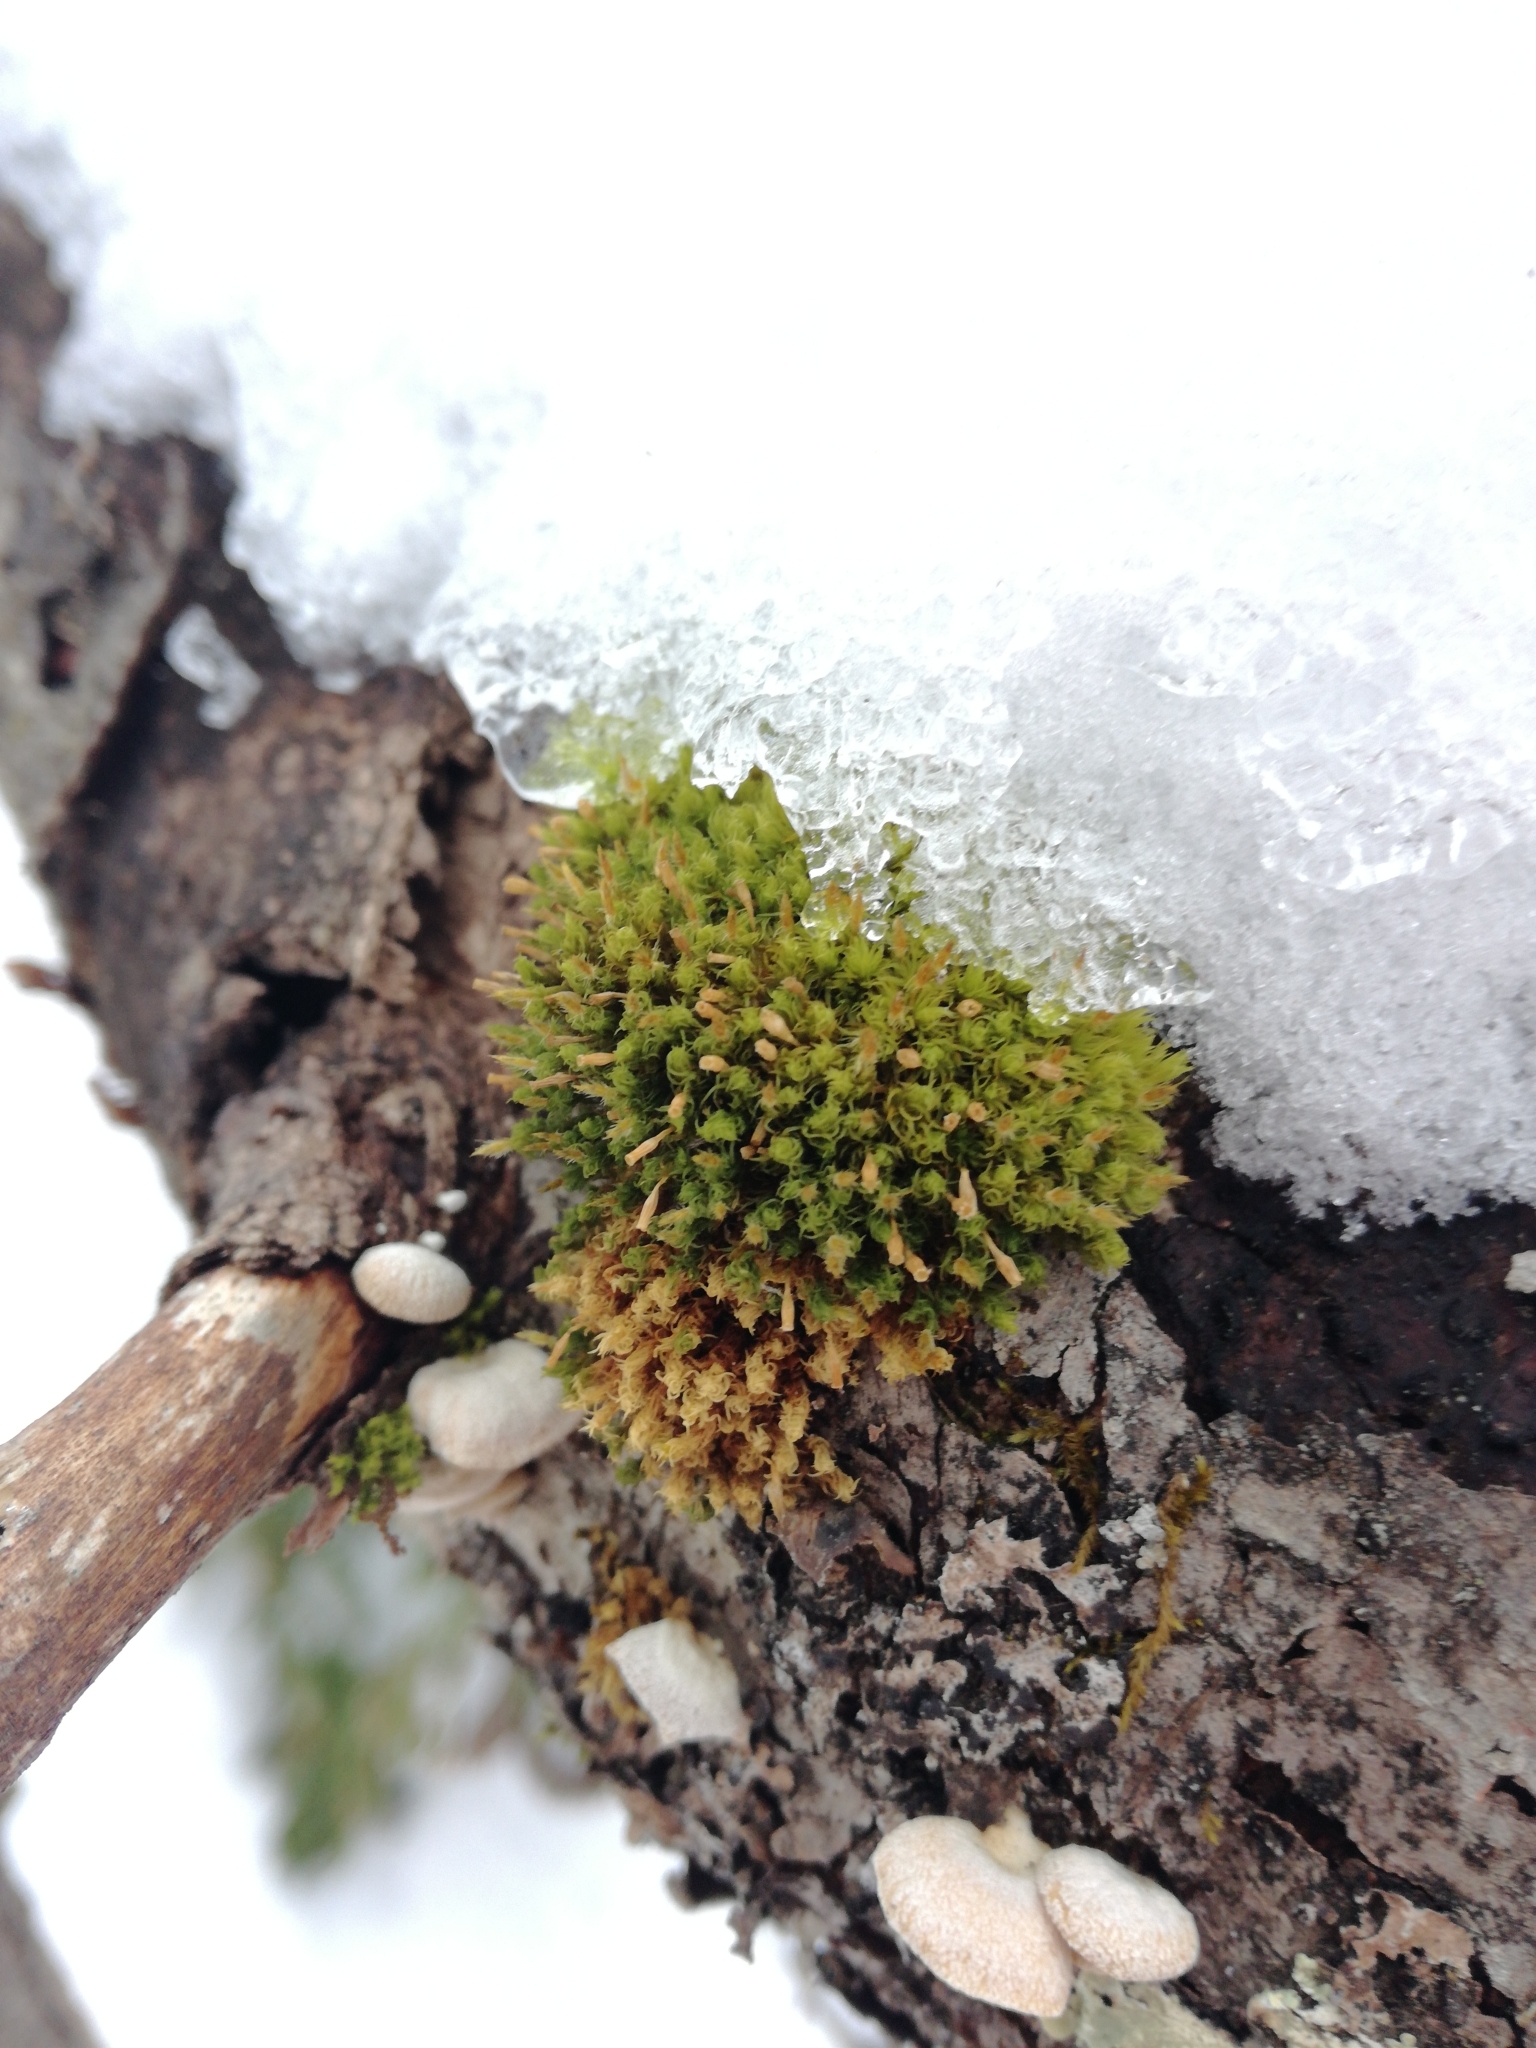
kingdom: Plantae
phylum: Bryophyta
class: Bryopsida
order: Orthotrichales
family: Orthotrichaceae
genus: Ulota
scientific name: Ulota crispa
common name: Crisped pincushion moss
